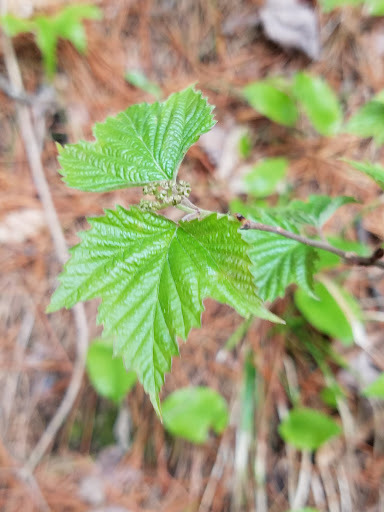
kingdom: Plantae
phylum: Tracheophyta
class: Magnoliopsida
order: Dipsacales
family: Viburnaceae
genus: Viburnum
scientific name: Viburnum acerifolium
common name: Dockmackie
